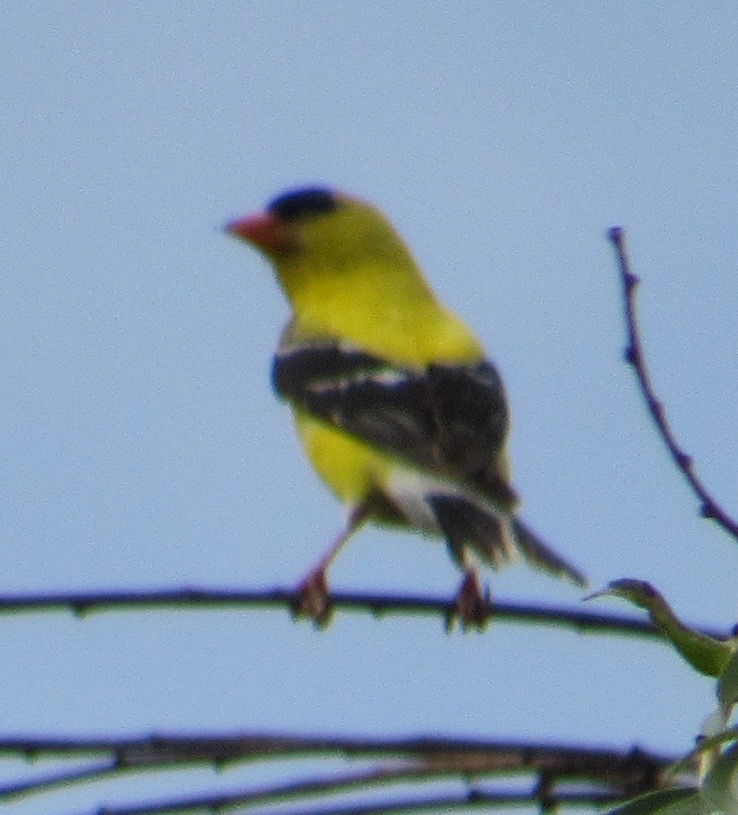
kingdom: Animalia
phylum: Chordata
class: Aves
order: Passeriformes
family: Fringillidae
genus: Spinus
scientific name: Spinus tristis
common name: American goldfinch
